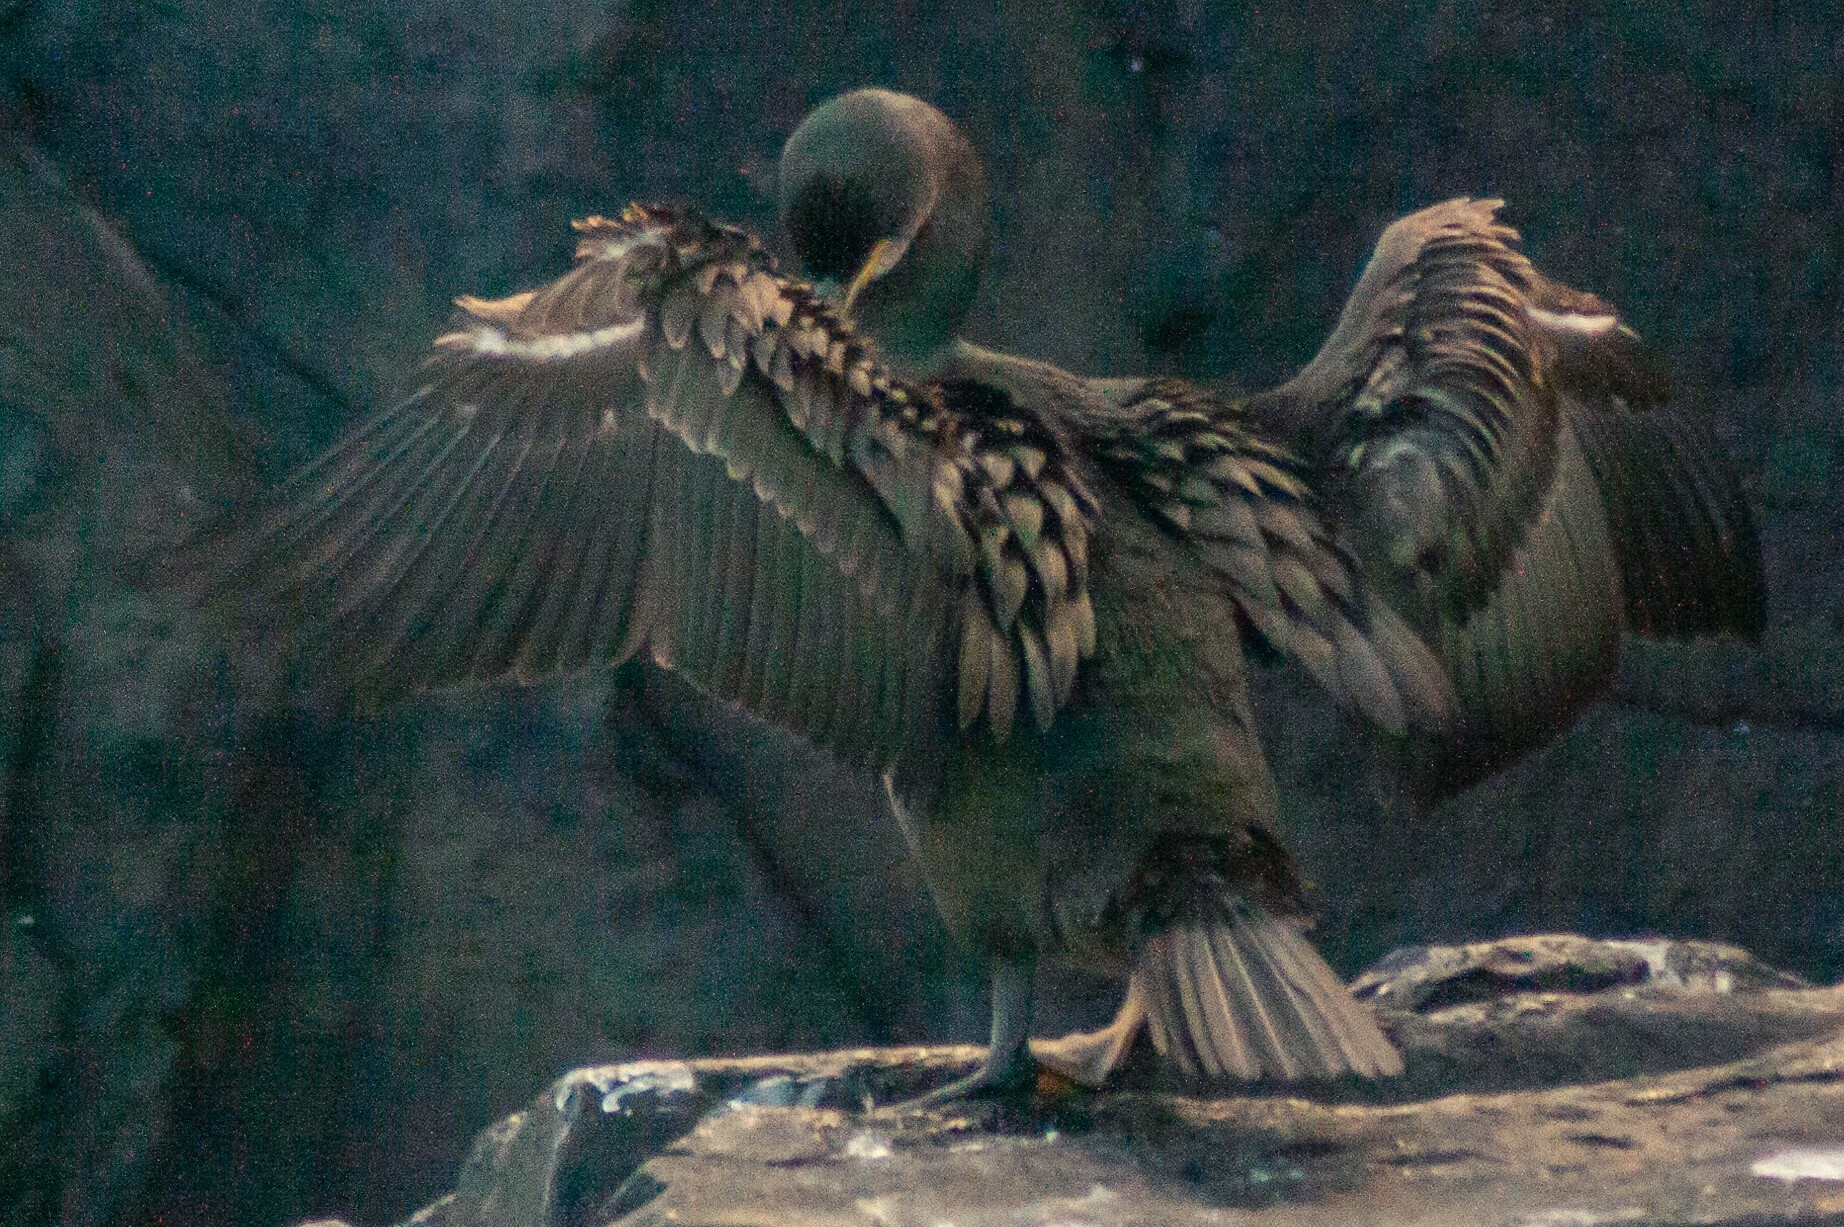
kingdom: Animalia
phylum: Chordata
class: Aves
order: Suliformes
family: Phalacrocoracidae
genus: Phalacrocorax
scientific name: Phalacrocorax aristotelis
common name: European shag
